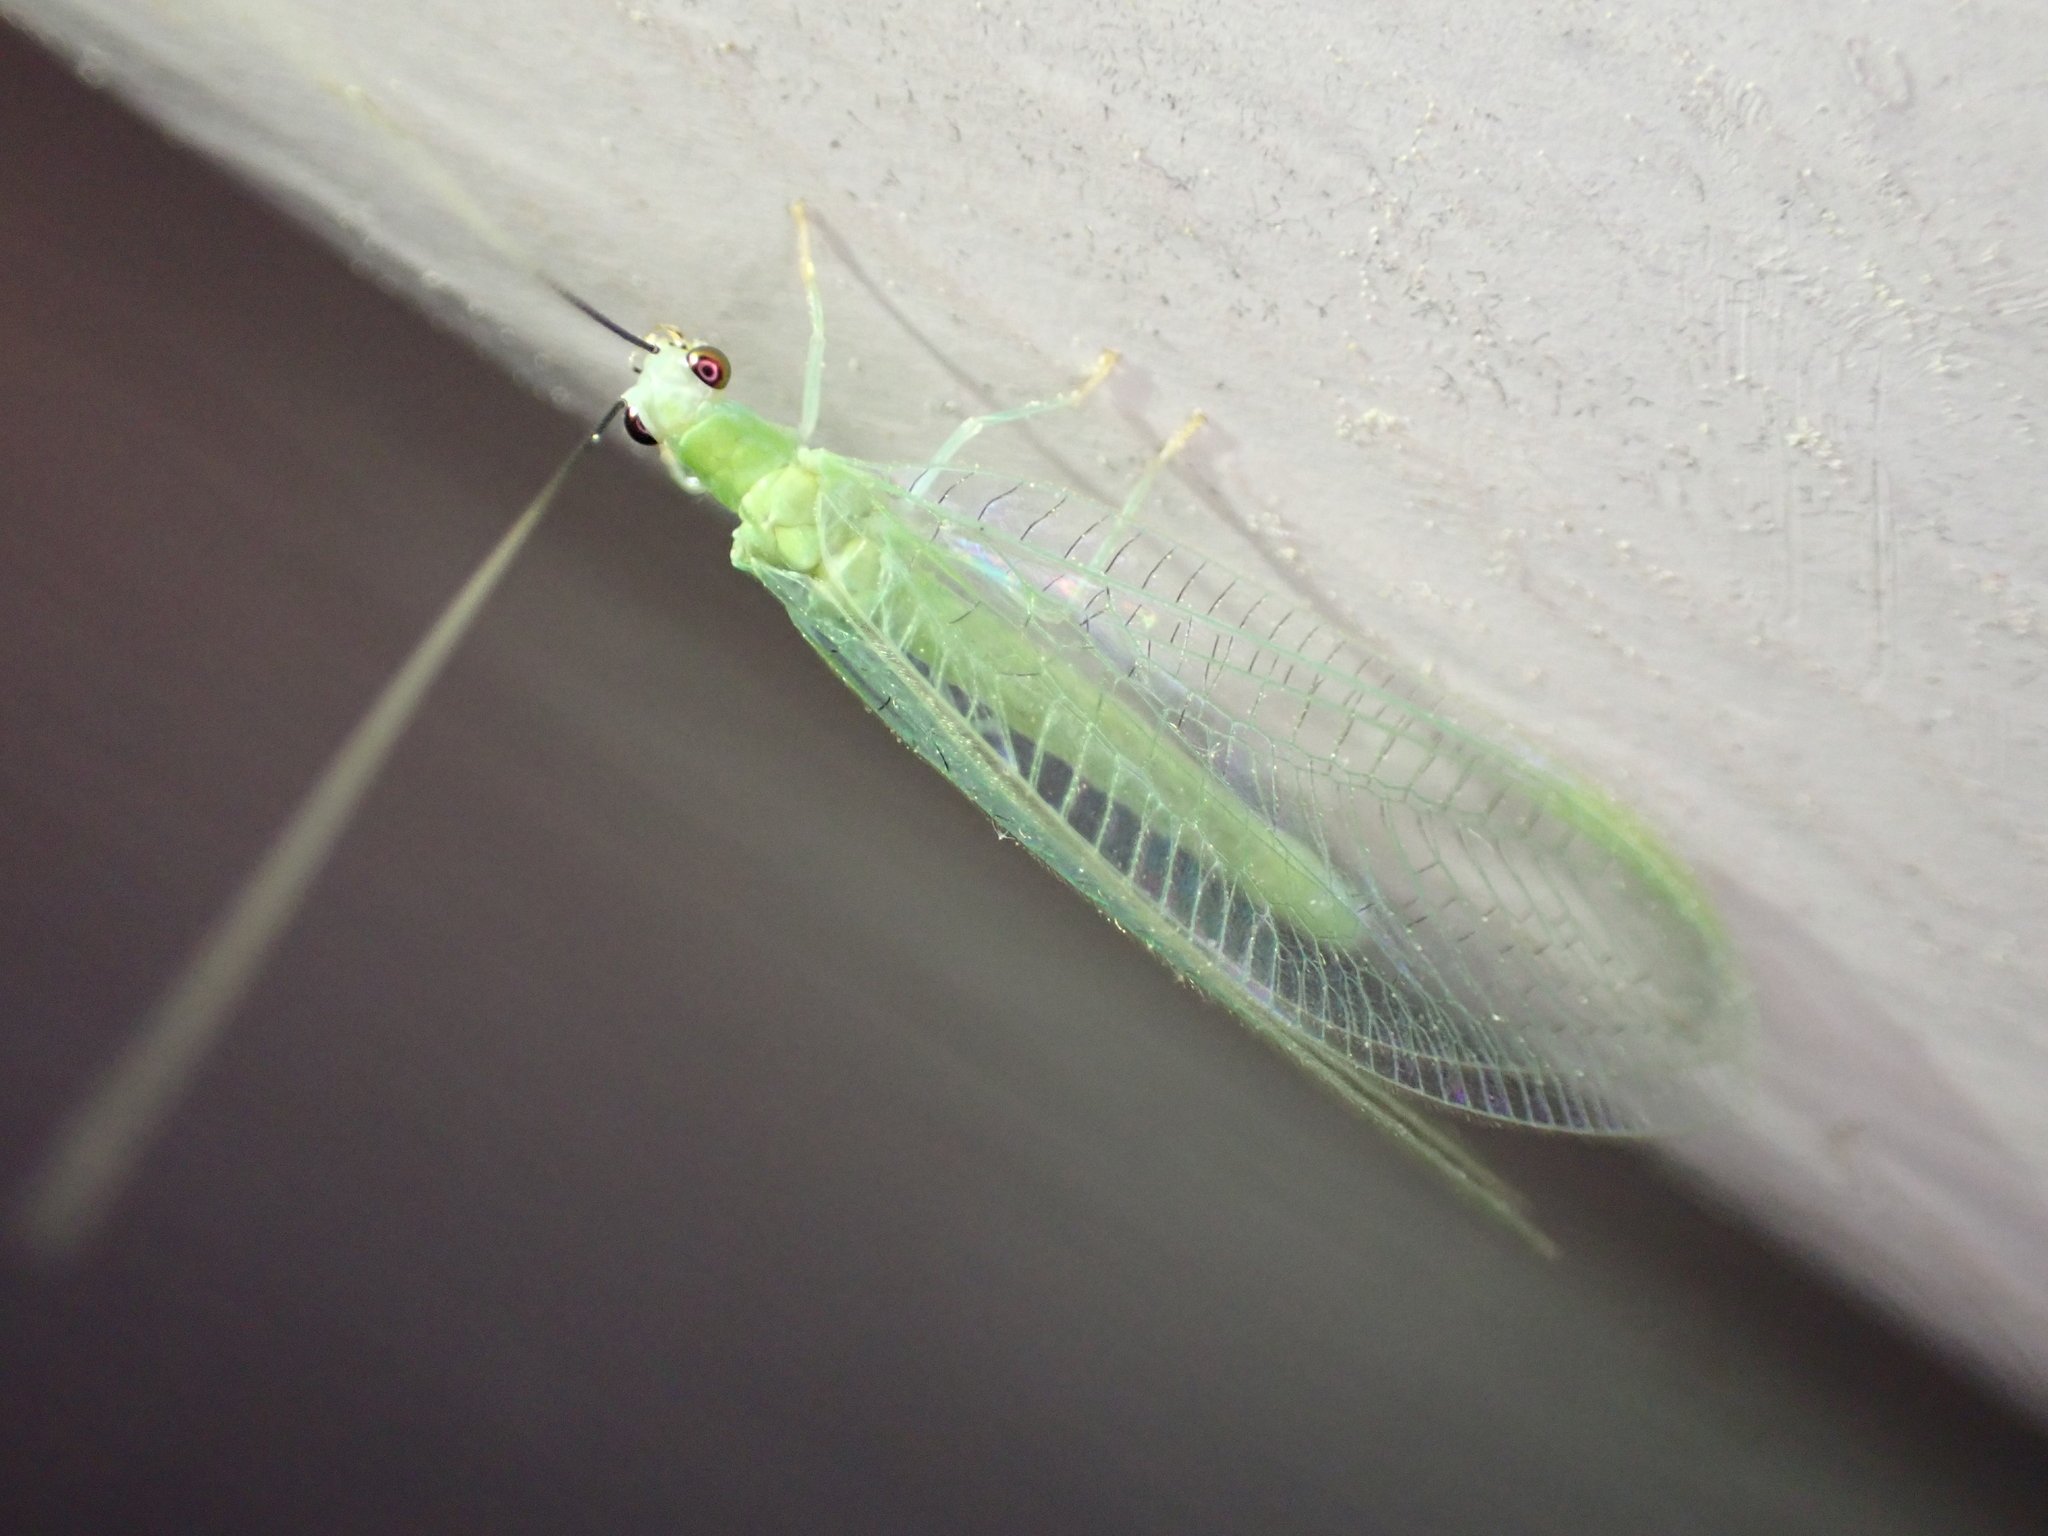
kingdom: Animalia
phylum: Arthropoda
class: Insecta
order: Neuroptera
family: Chrysopidae
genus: Chrysopa
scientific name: Chrysopa nigricornis
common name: Black-horned green lacewing
